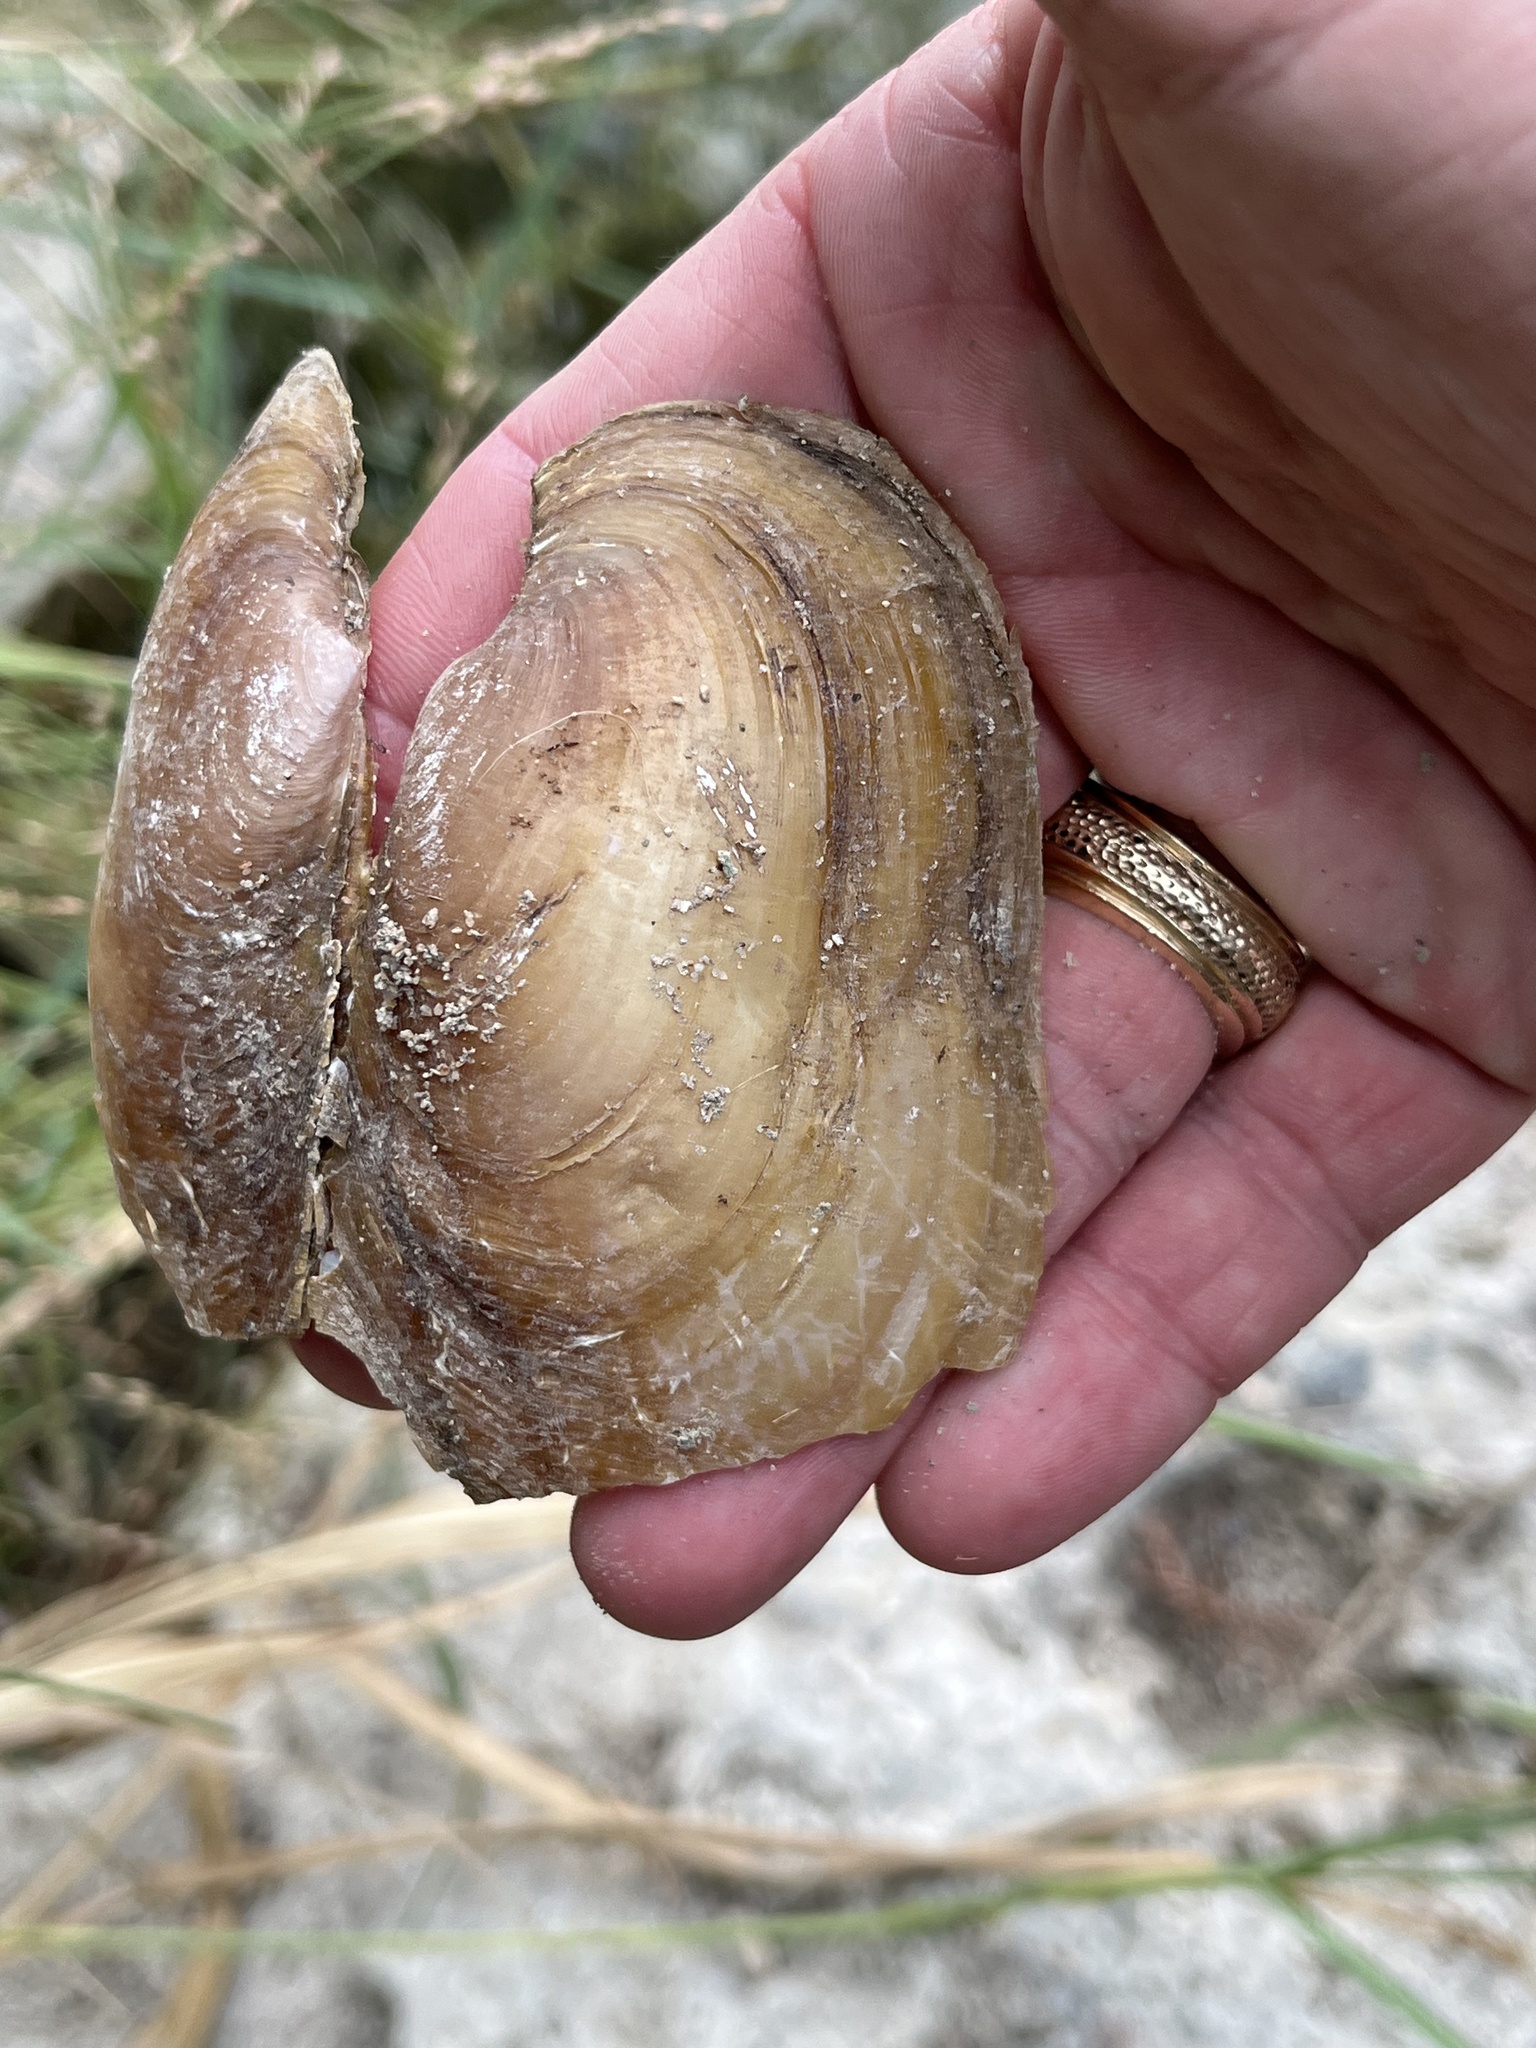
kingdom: Animalia
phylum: Mollusca
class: Bivalvia
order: Unionida
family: Unionidae
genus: Potamilus
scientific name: Potamilus fragilis
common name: Fragile papershell
